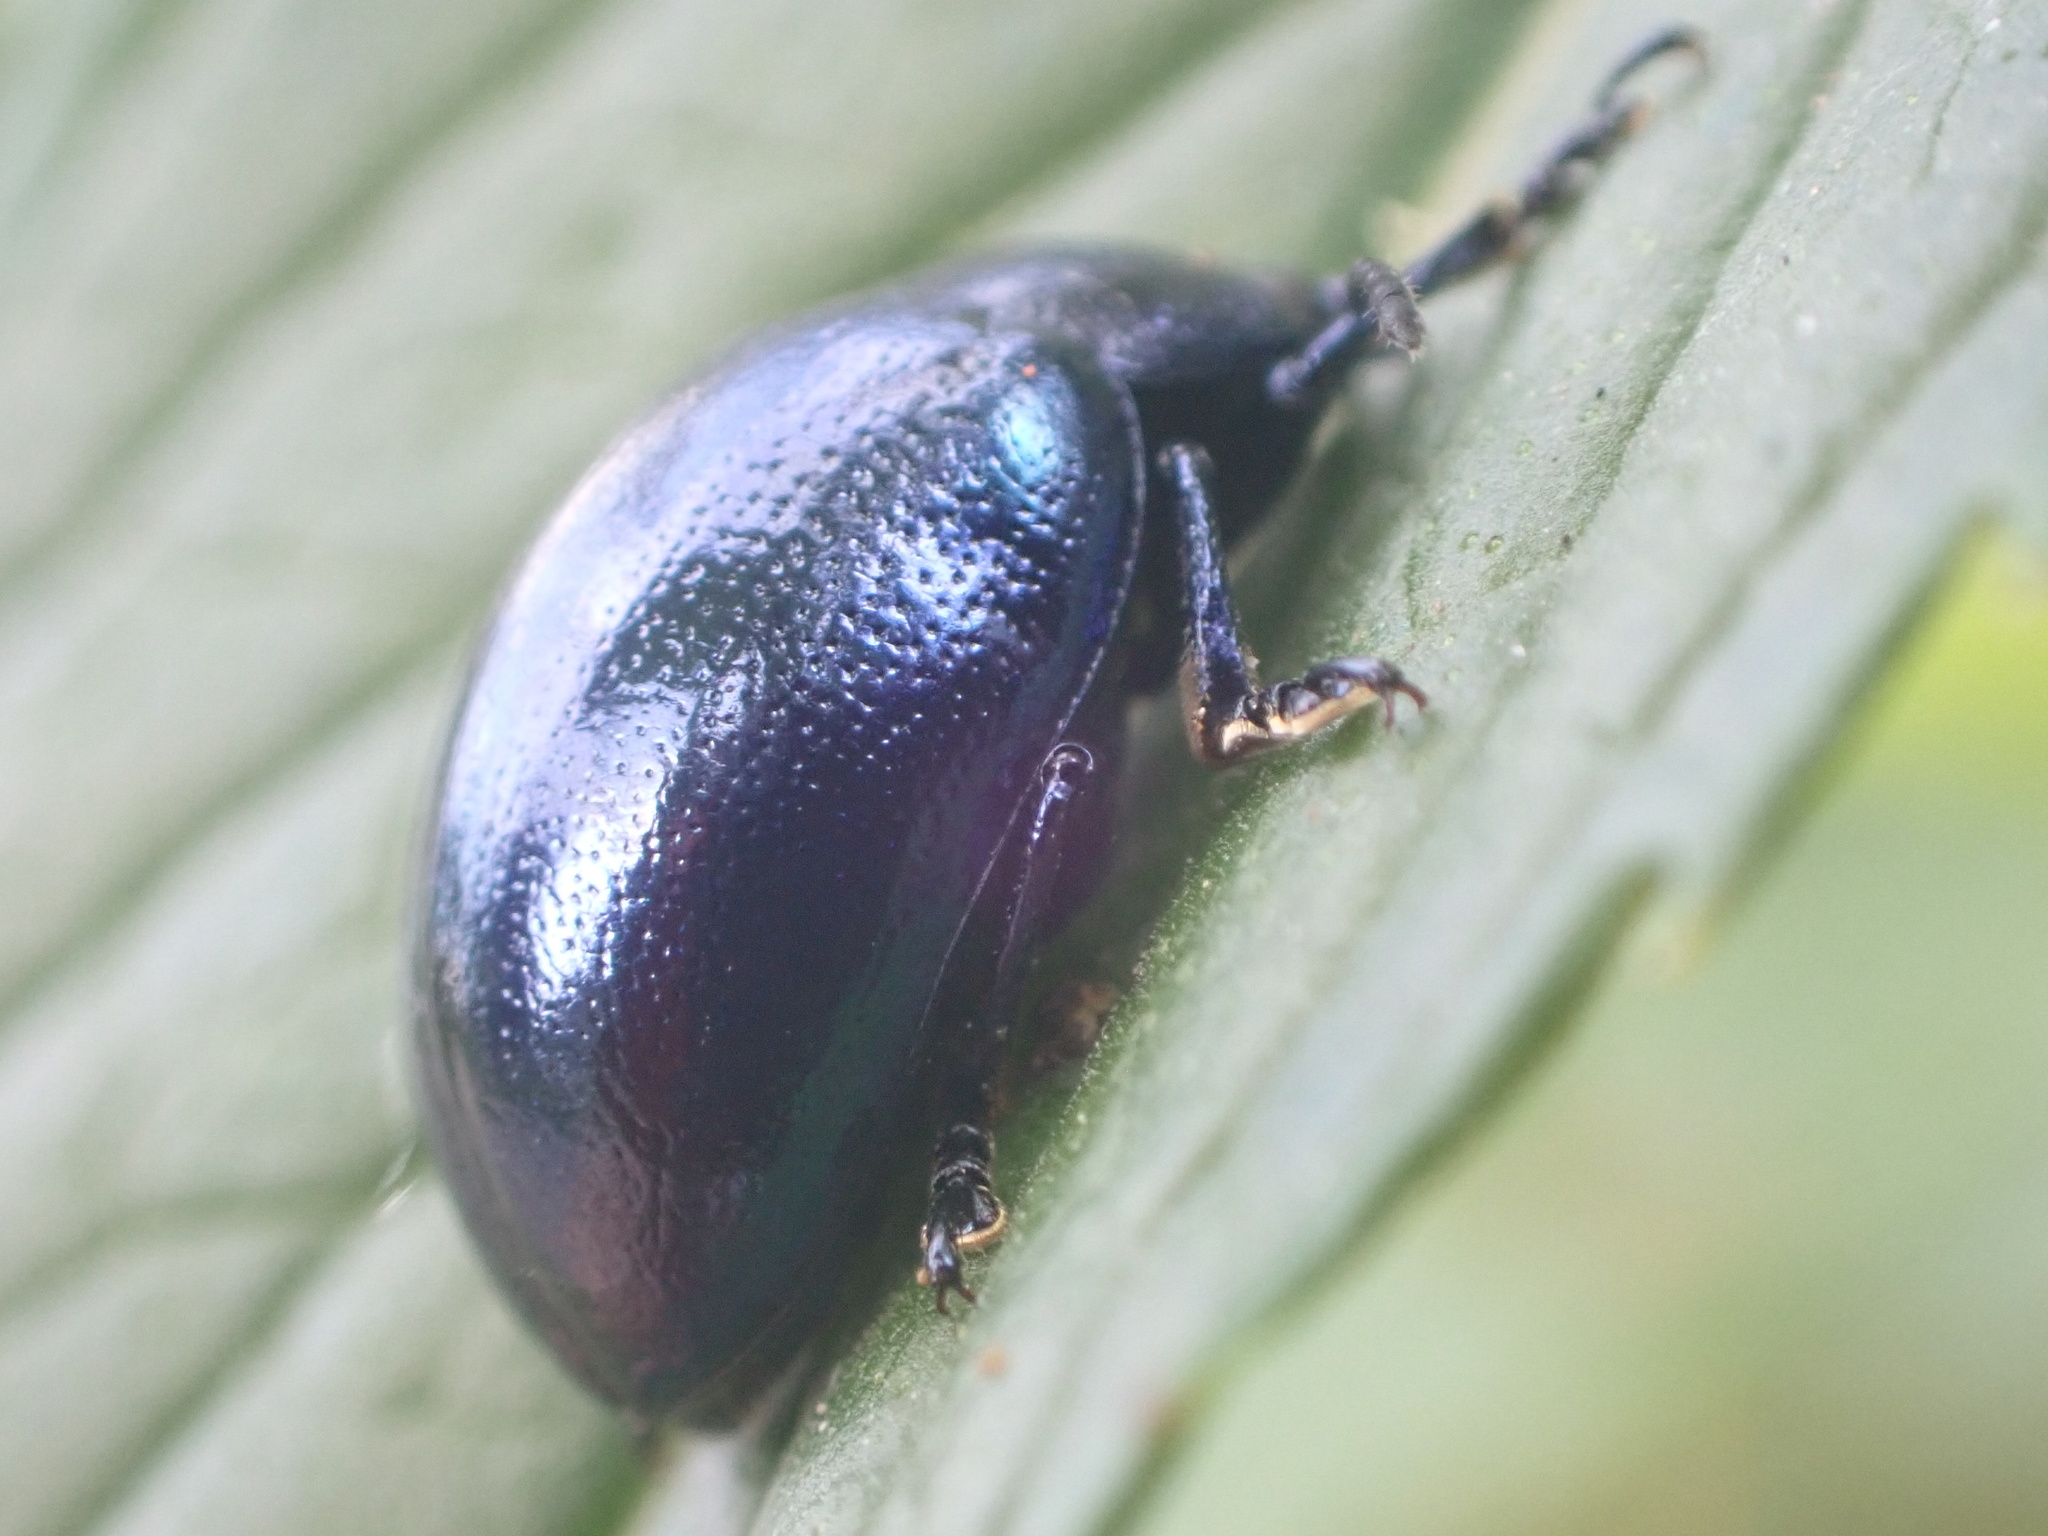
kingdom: Animalia
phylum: Arthropoda
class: Insecta
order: Coleoptera
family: Chrysomelidae
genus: Chrysolina
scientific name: Chrysolina coerulans
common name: Blue mint beetle
